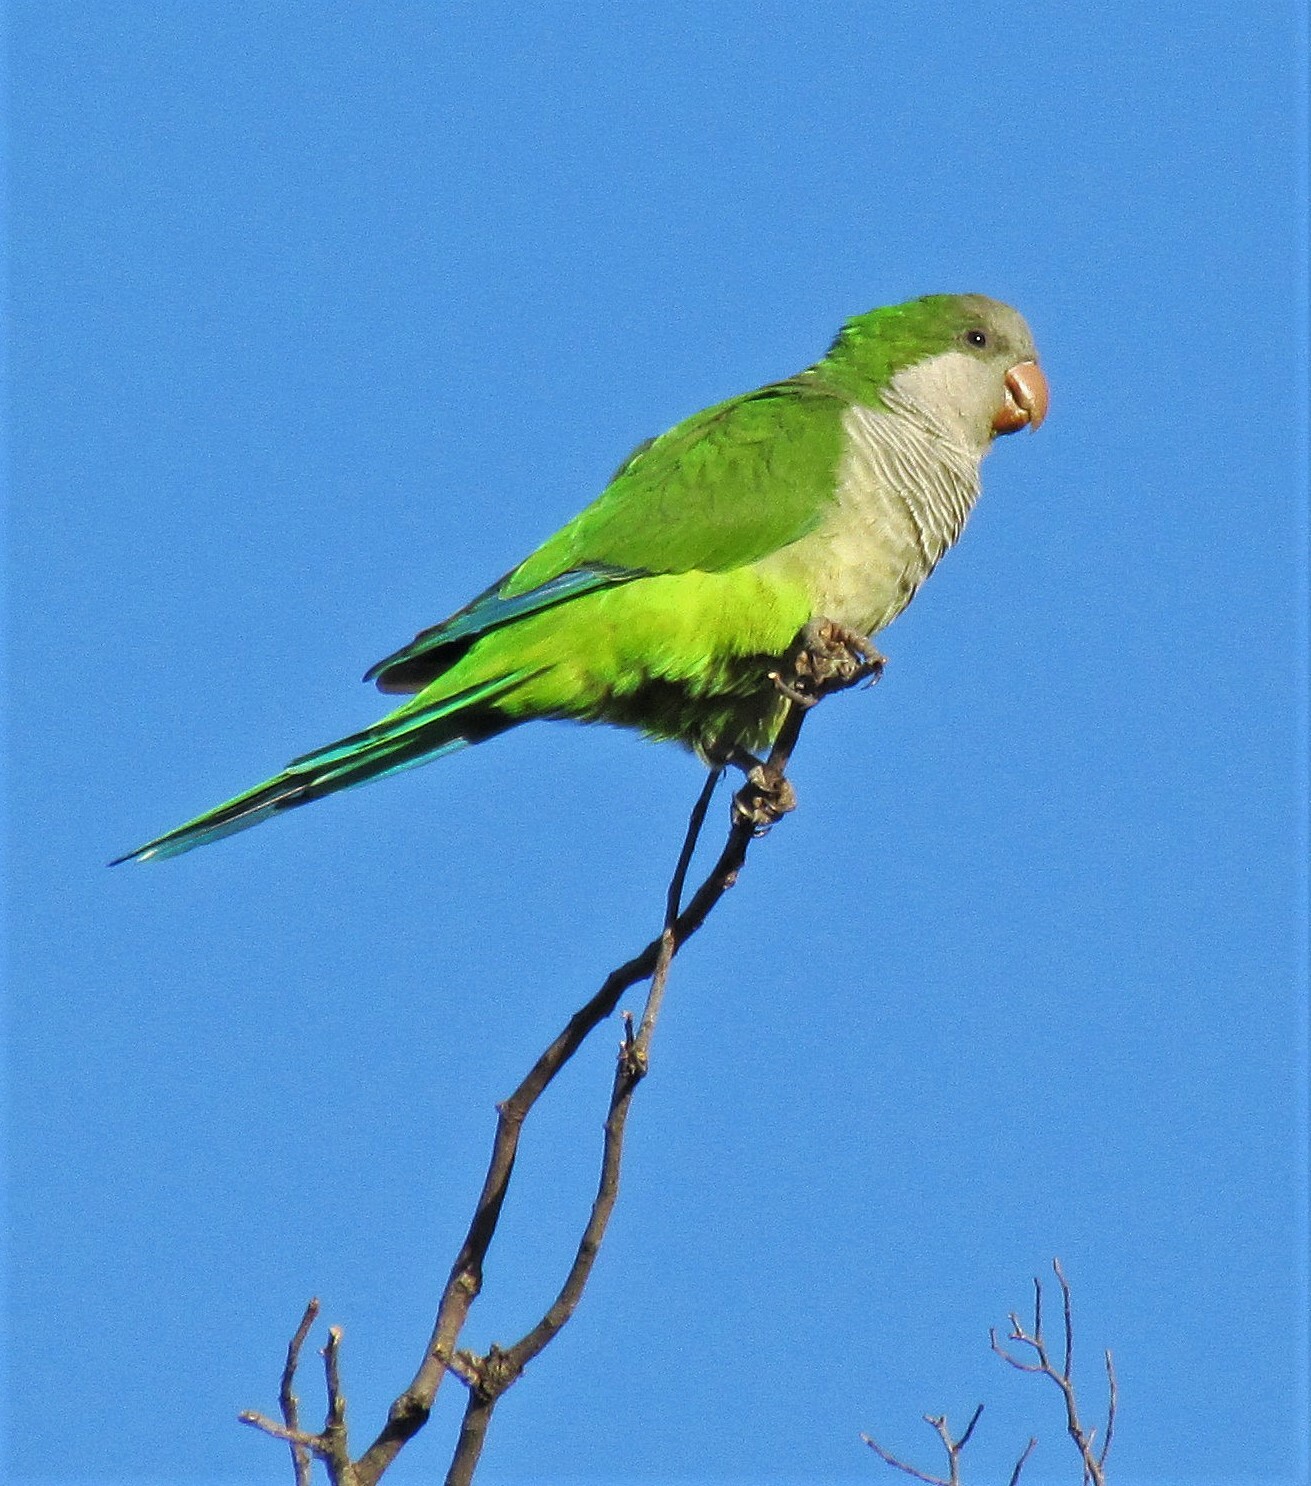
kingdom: Animalia
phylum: Chordata
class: Aves
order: Psittaciformes
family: Psittacidae
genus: Myiopsitta
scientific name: Myiopsitta monachus
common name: Monk parakeet
